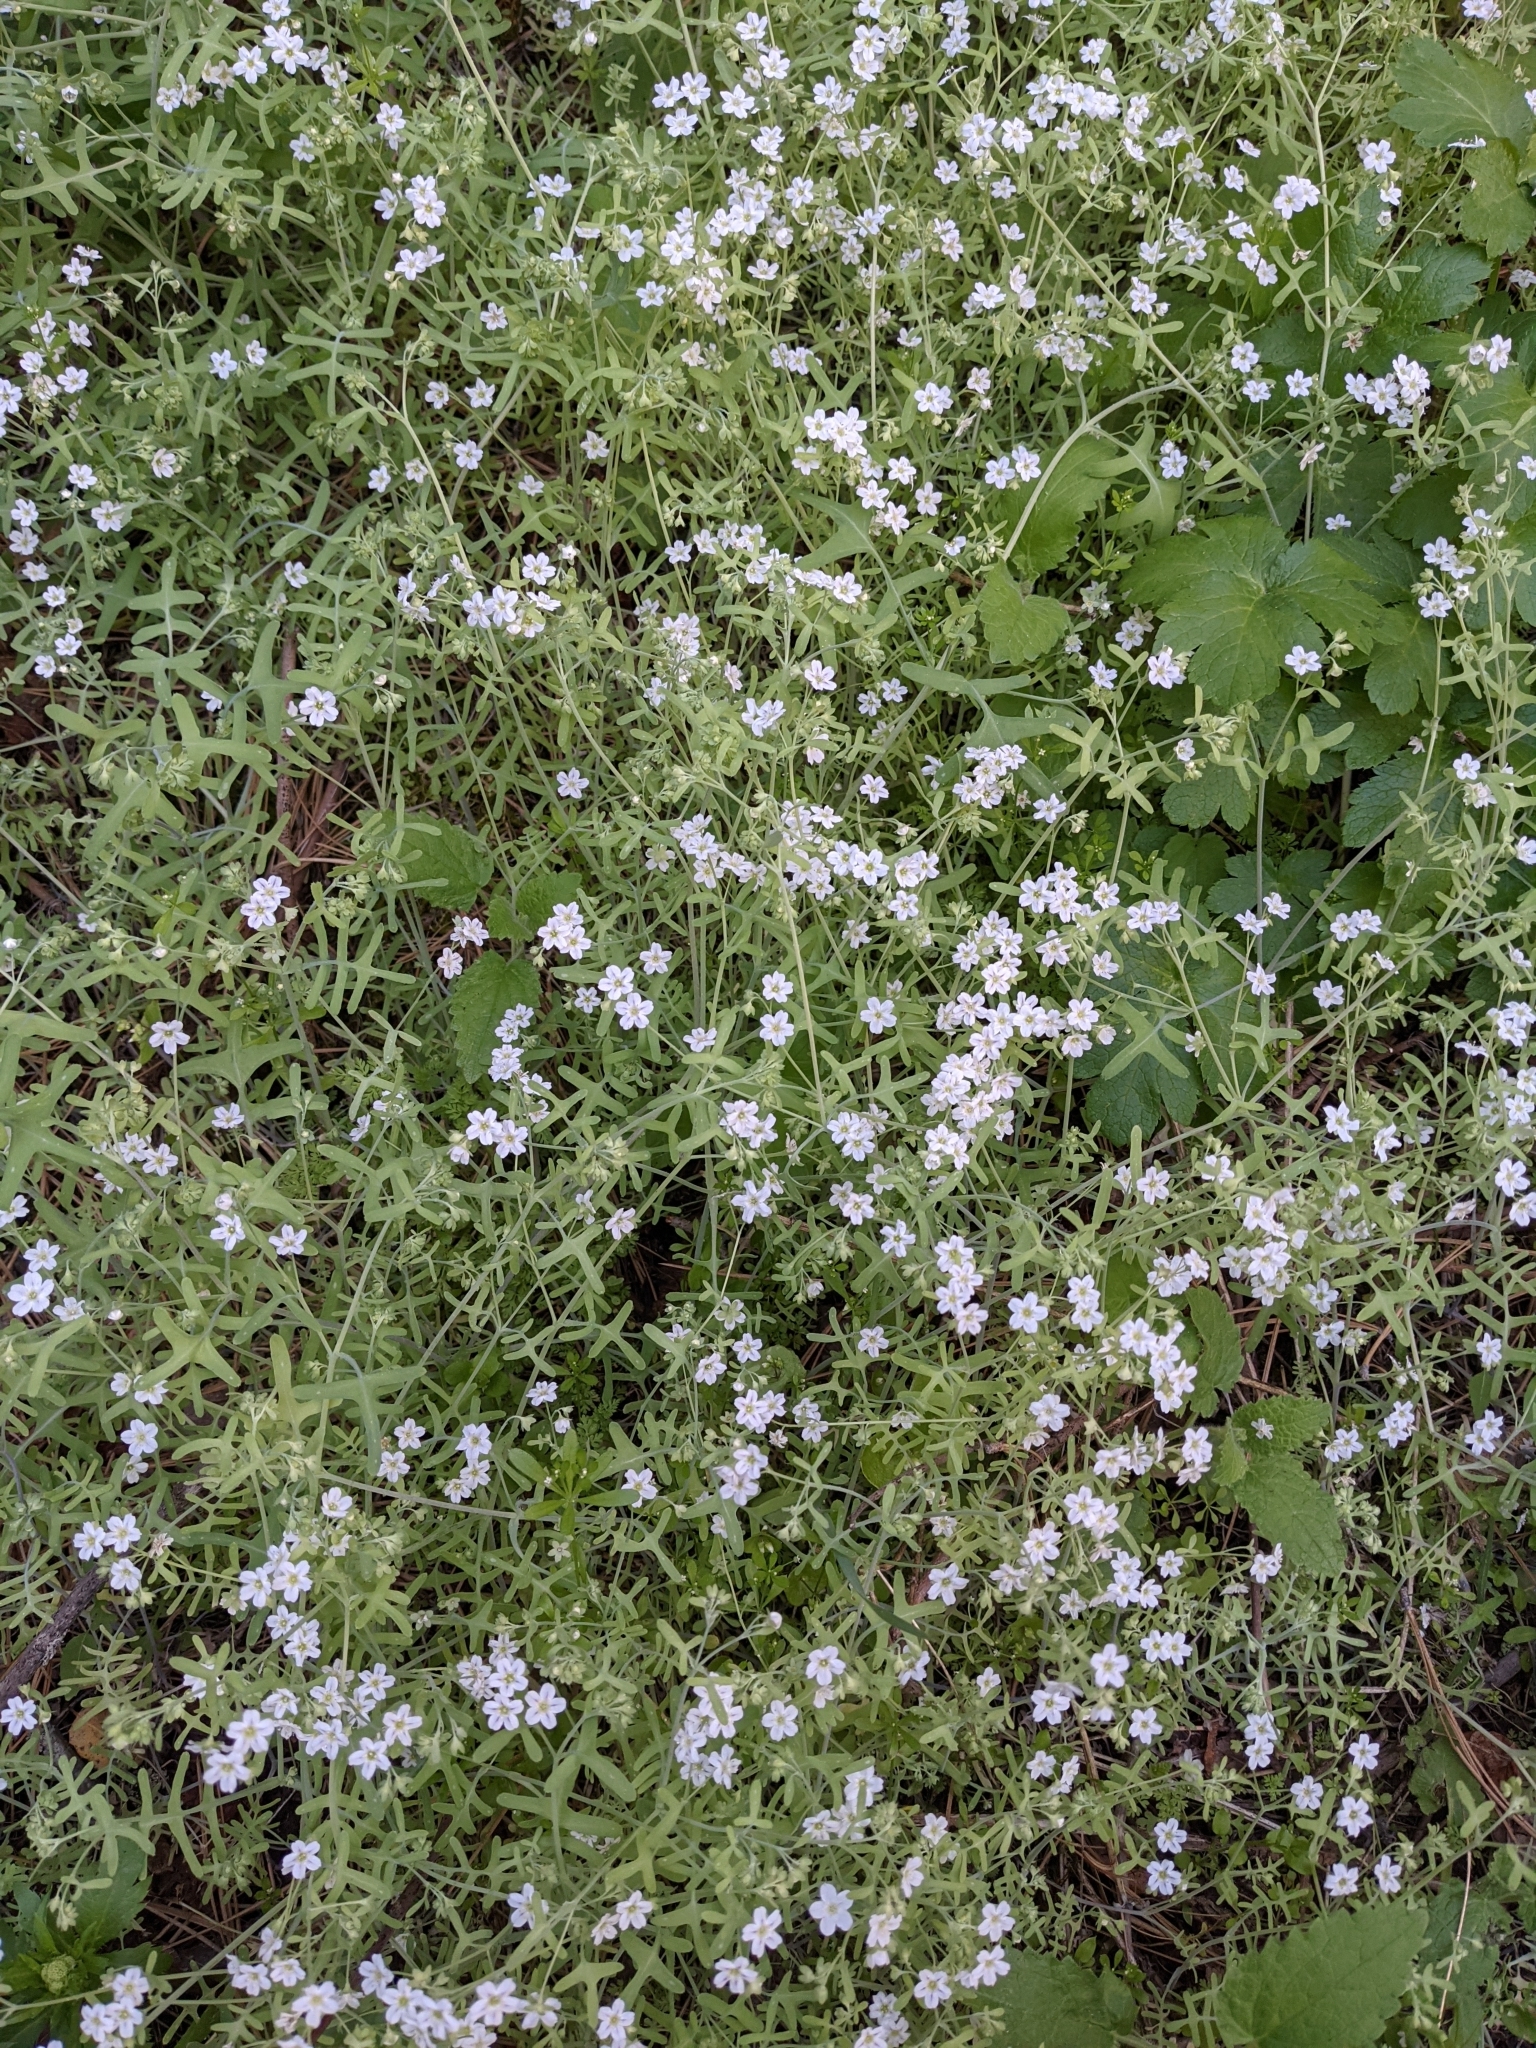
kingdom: Plantae
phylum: Tracheophyta
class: Magnoliopsida
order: Boraginales
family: Hydrophyllaceae
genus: Pholistoma
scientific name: Pholistoma membranaceum
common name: White fiesta-flower
